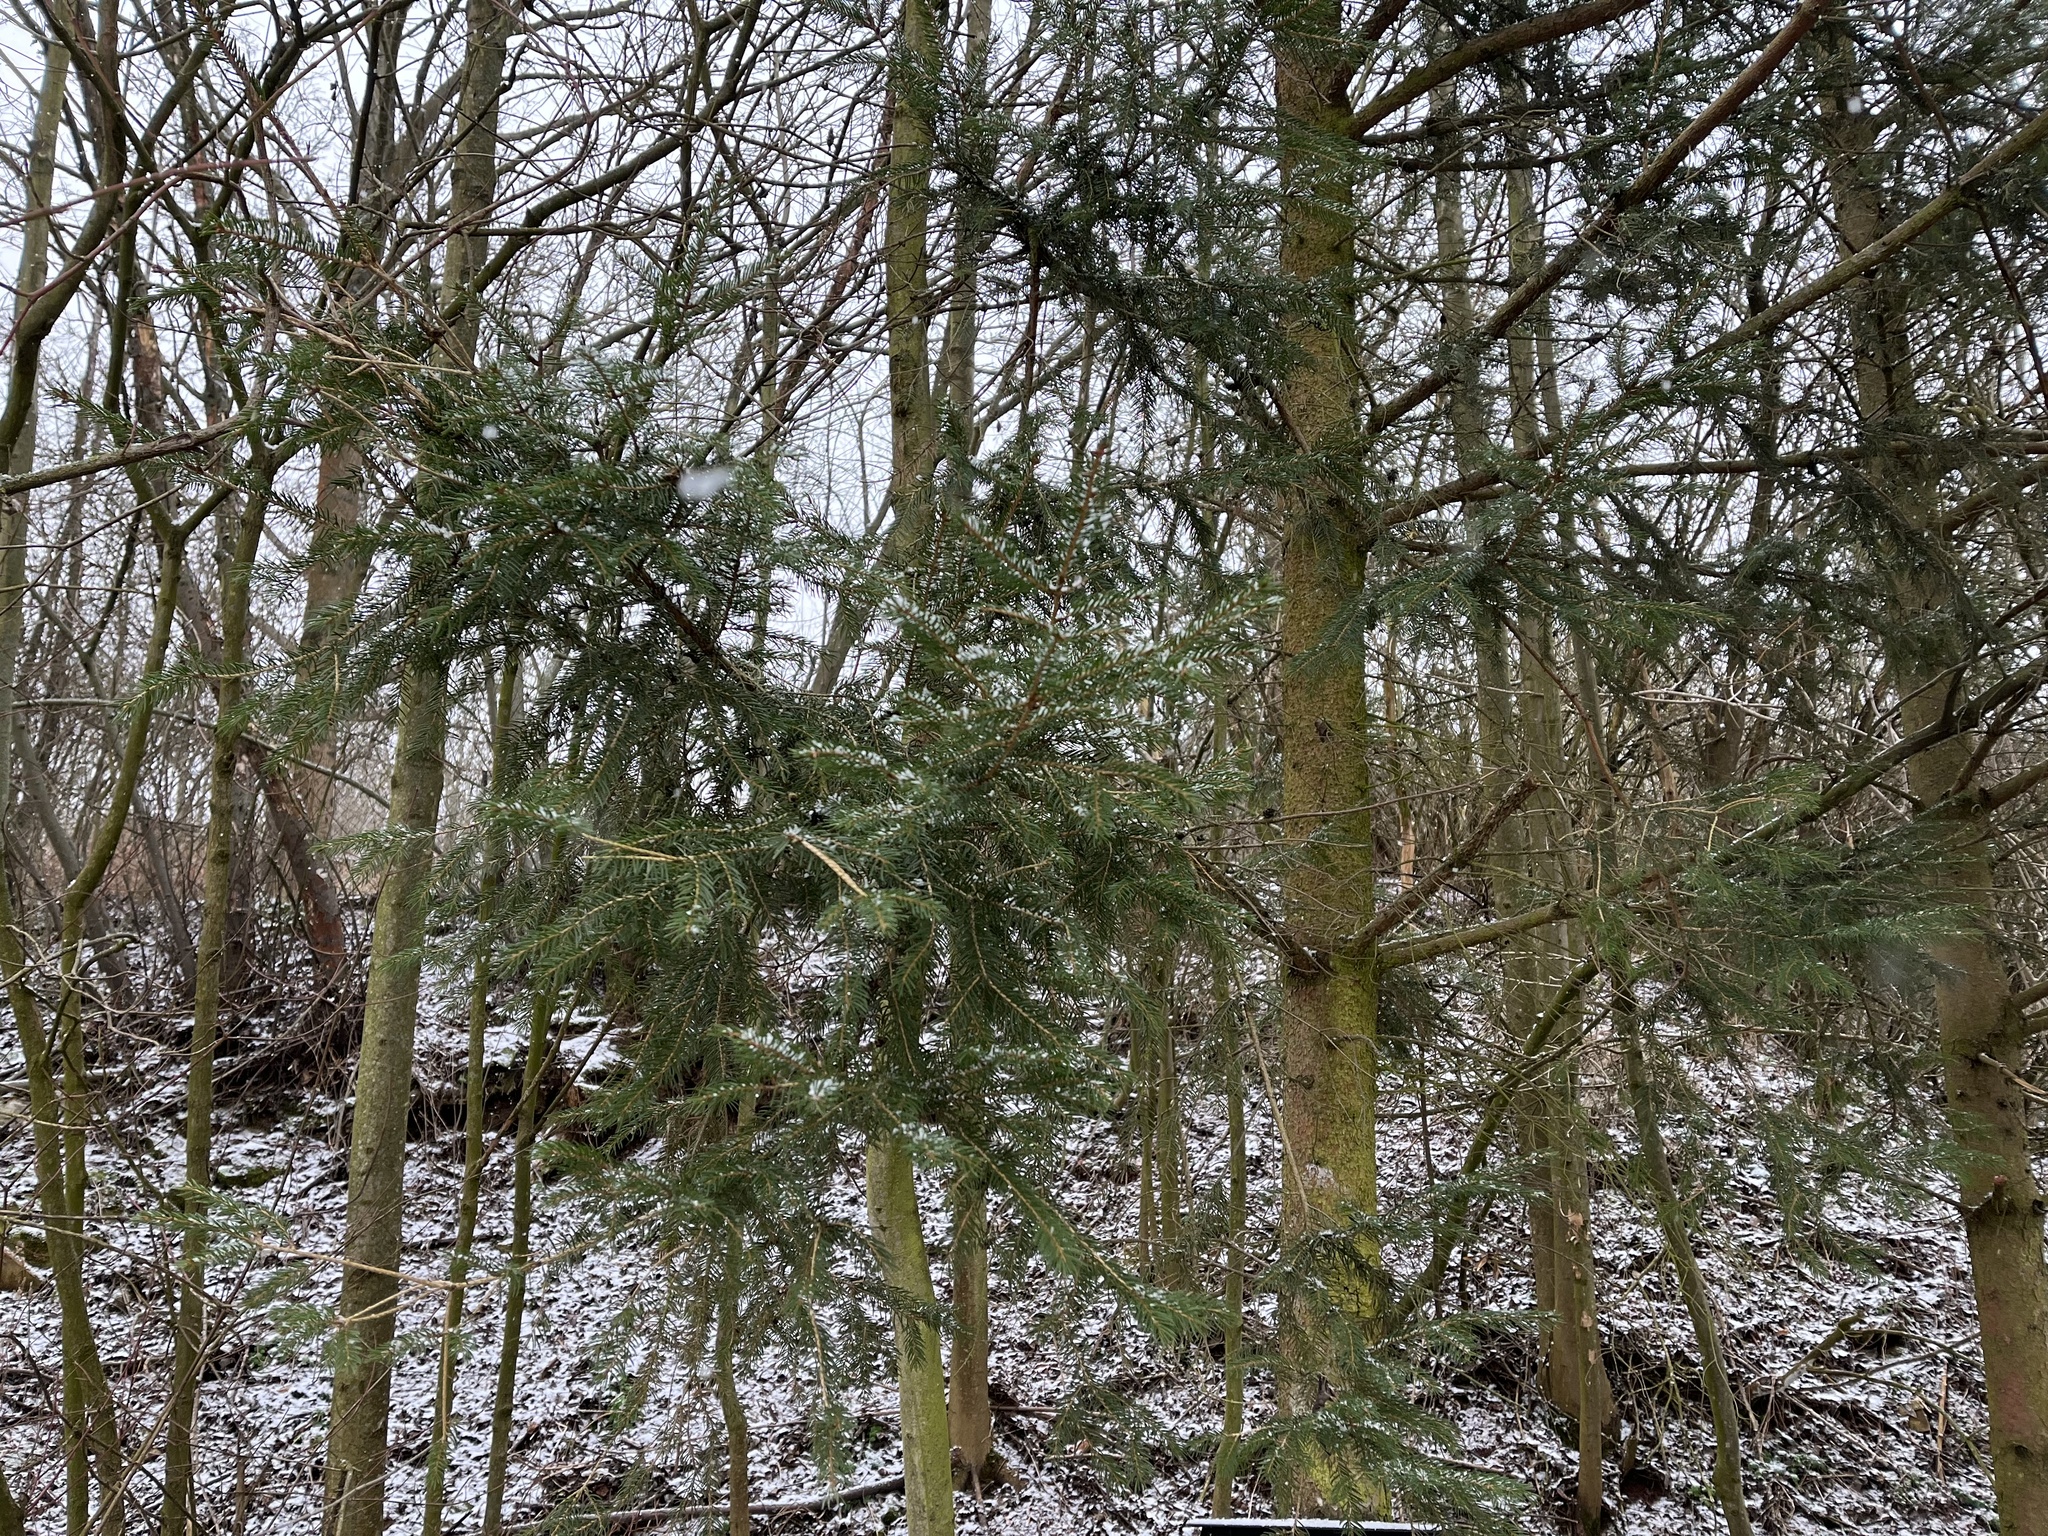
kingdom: Plantae
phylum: Tracheophyta
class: Pinopsida
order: Pinales
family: Pinaceae
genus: Picea
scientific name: Picea abies
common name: Norway spruce
